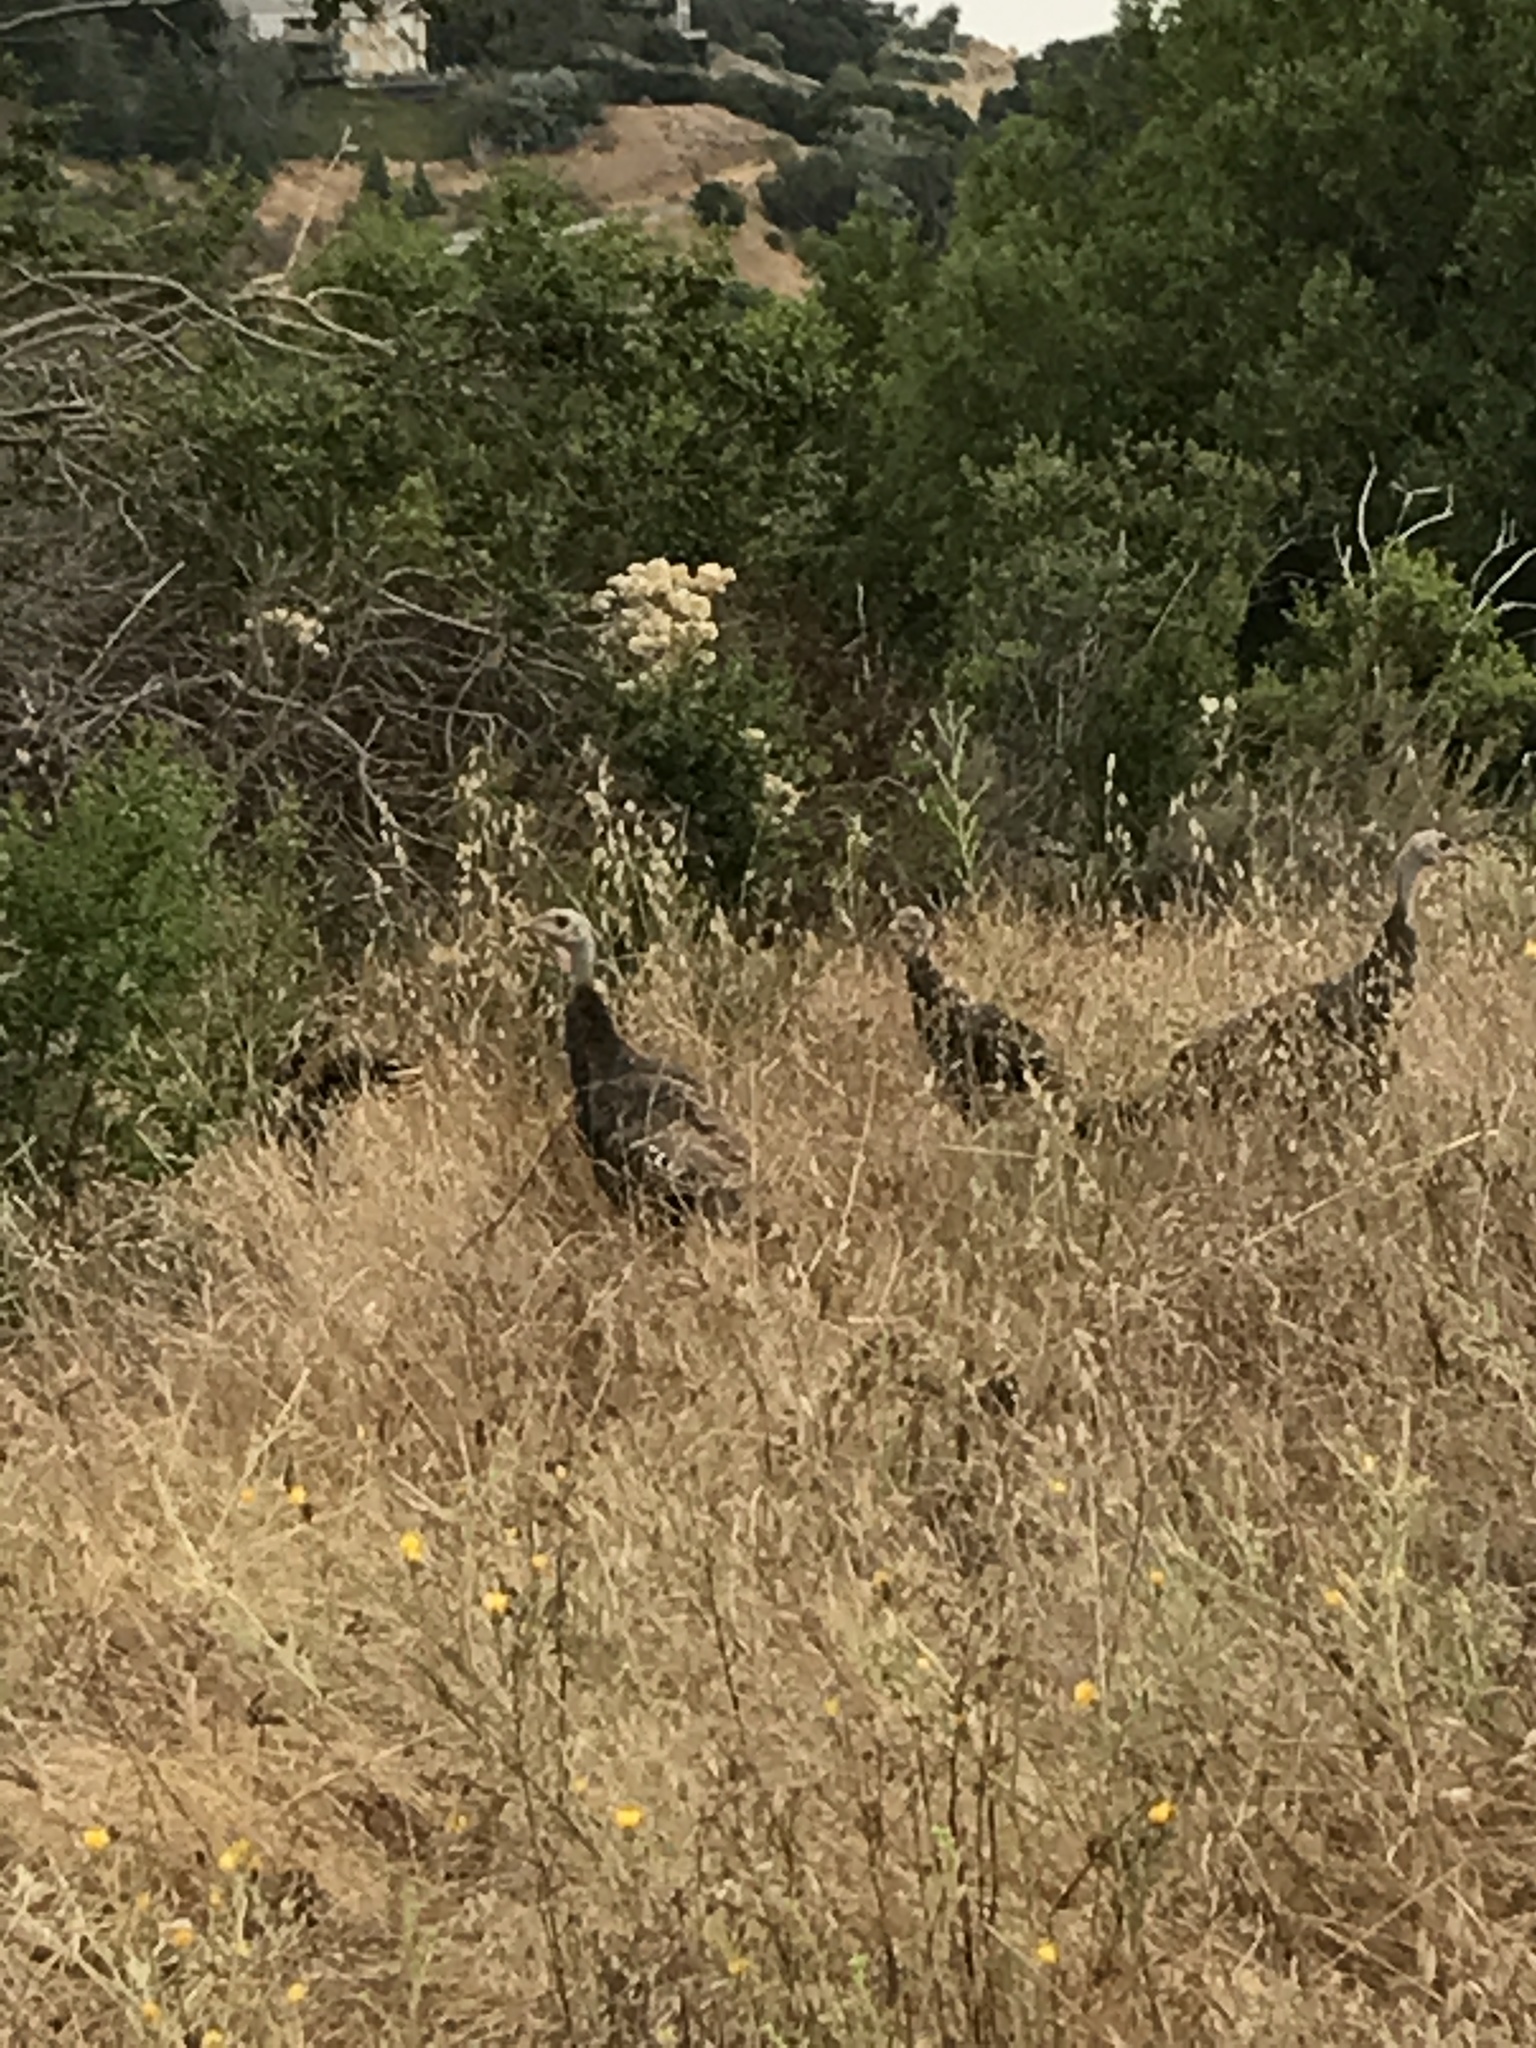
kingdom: Animalia
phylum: Chordata
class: Aves
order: Galliformes
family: Phasianidae
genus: Meleagris
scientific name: Meleagris gallopavo
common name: Wild turkey
